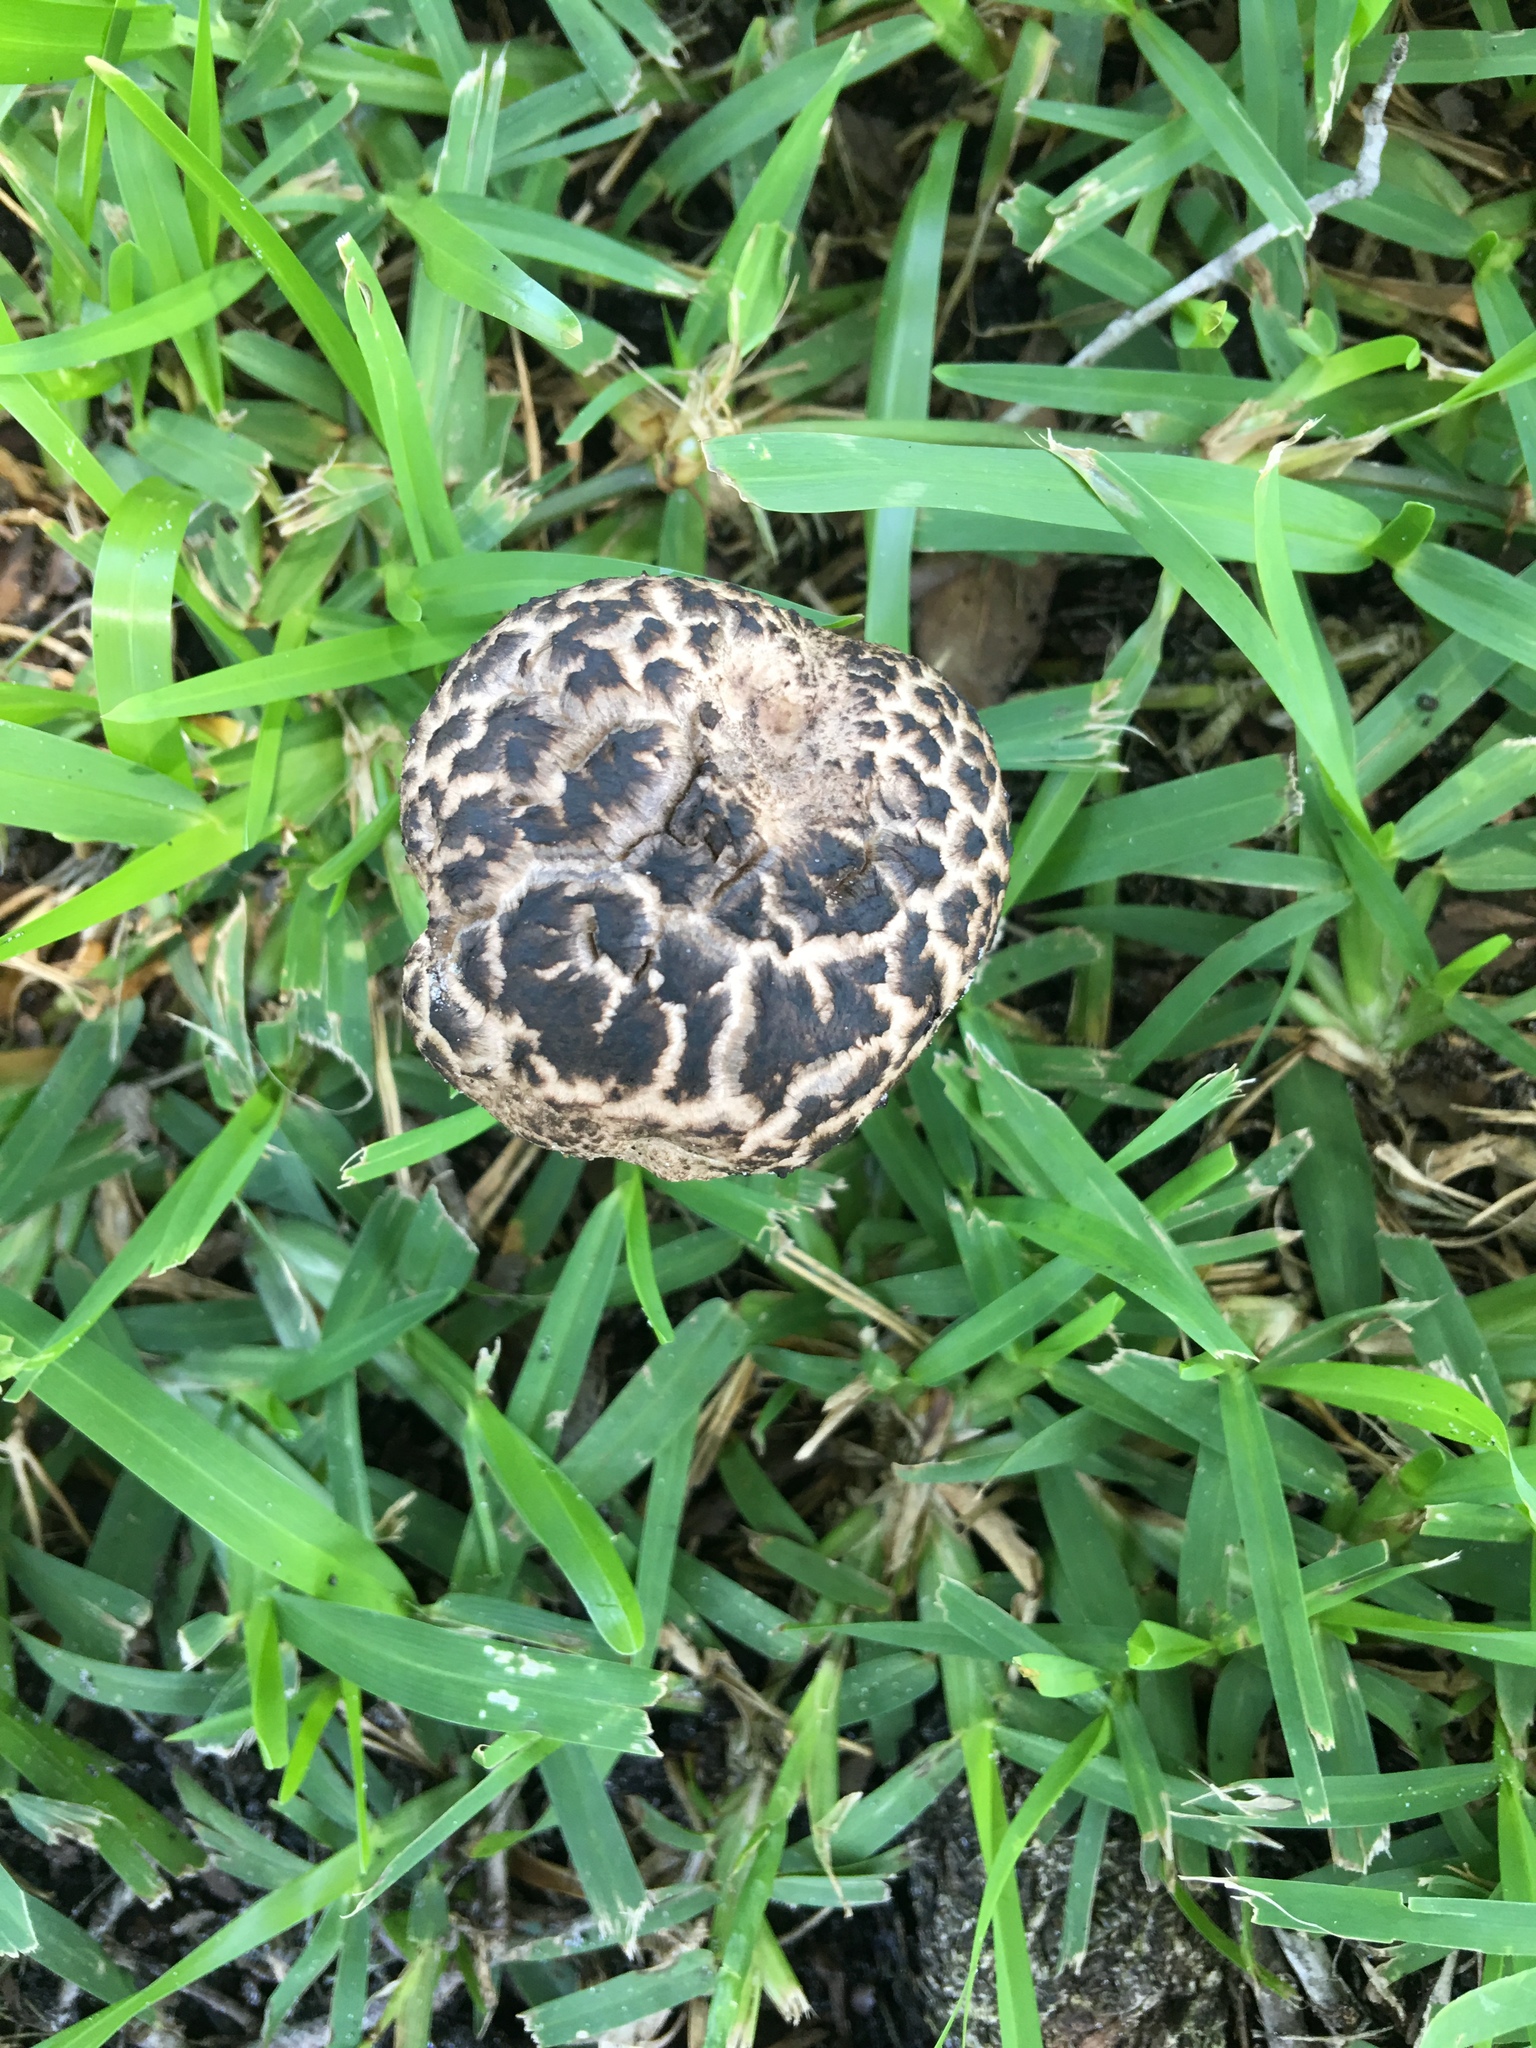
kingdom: Fungi
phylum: Basidiomycota
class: Agaricomycetes
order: Boletales
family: Boletaceae
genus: Strobilomyces
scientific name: Strobilomyces strobilaceus
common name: Old man of the woods
